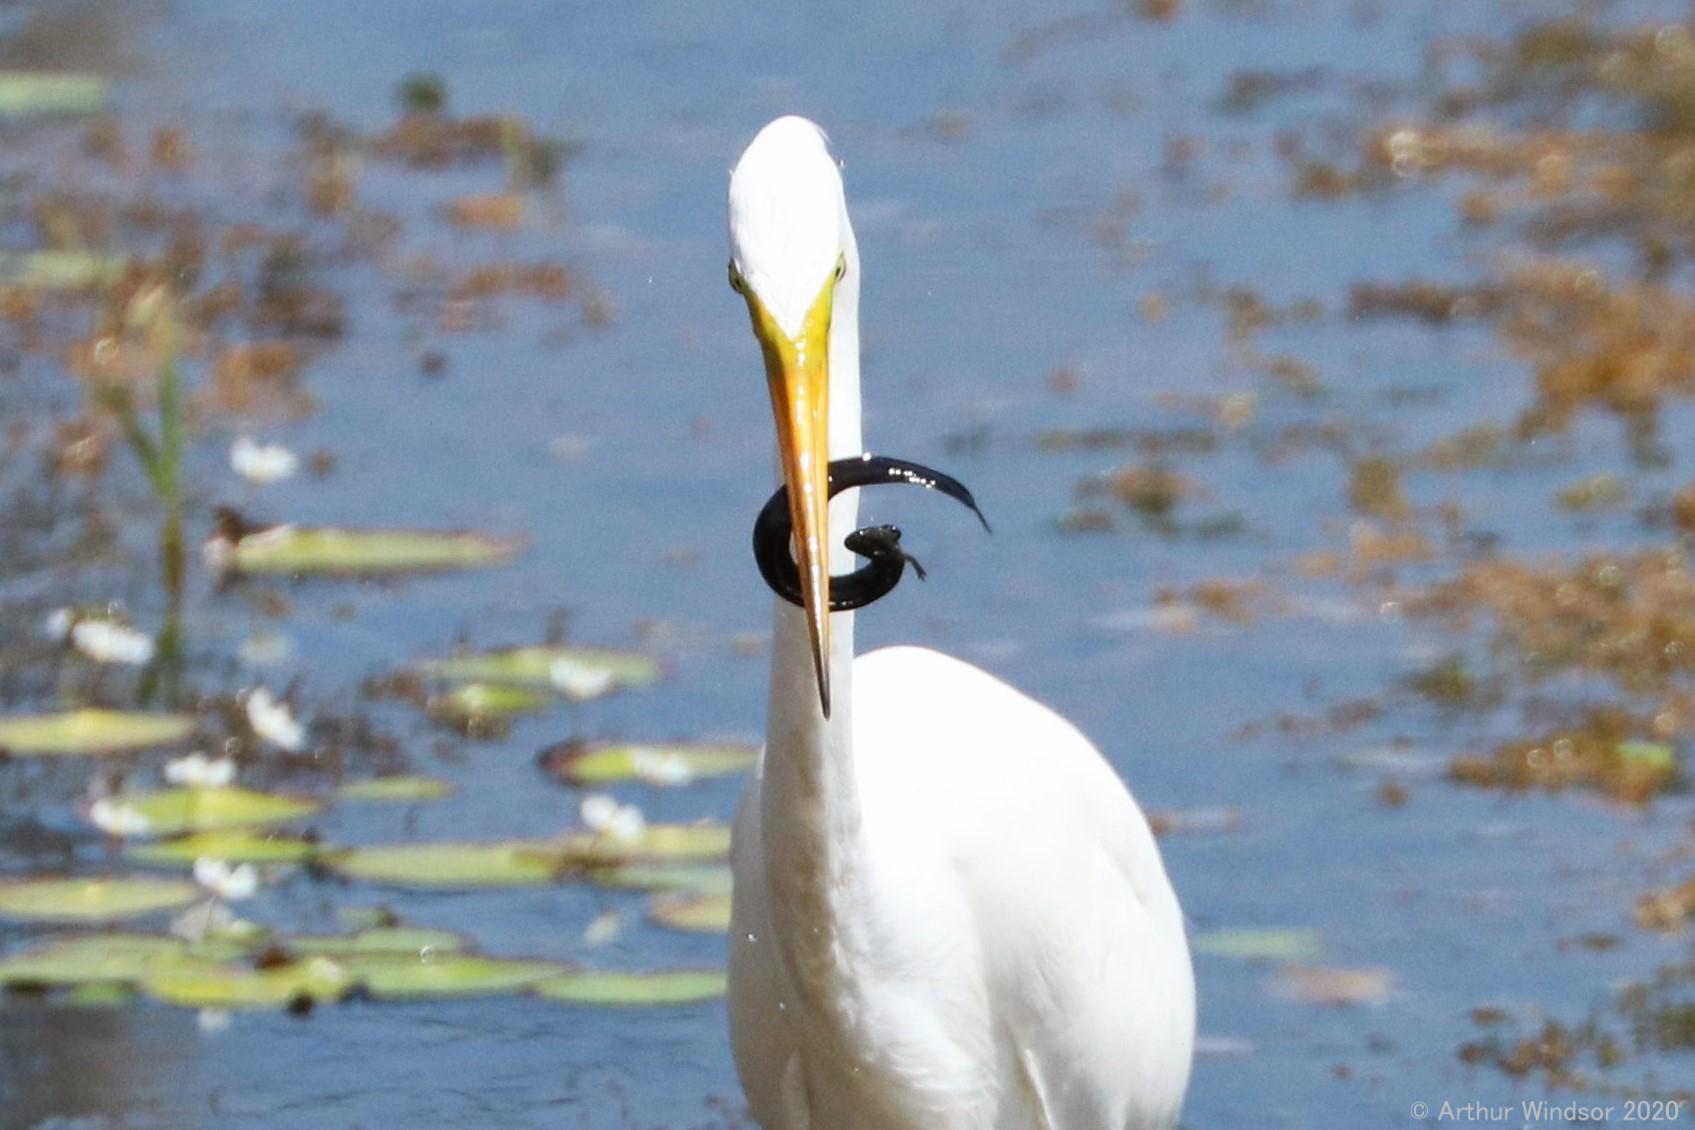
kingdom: Animalia
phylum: Chordata
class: Amphibia
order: Caudata
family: Sirenidae
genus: Siren
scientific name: Siren lacertina
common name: Greater siren
